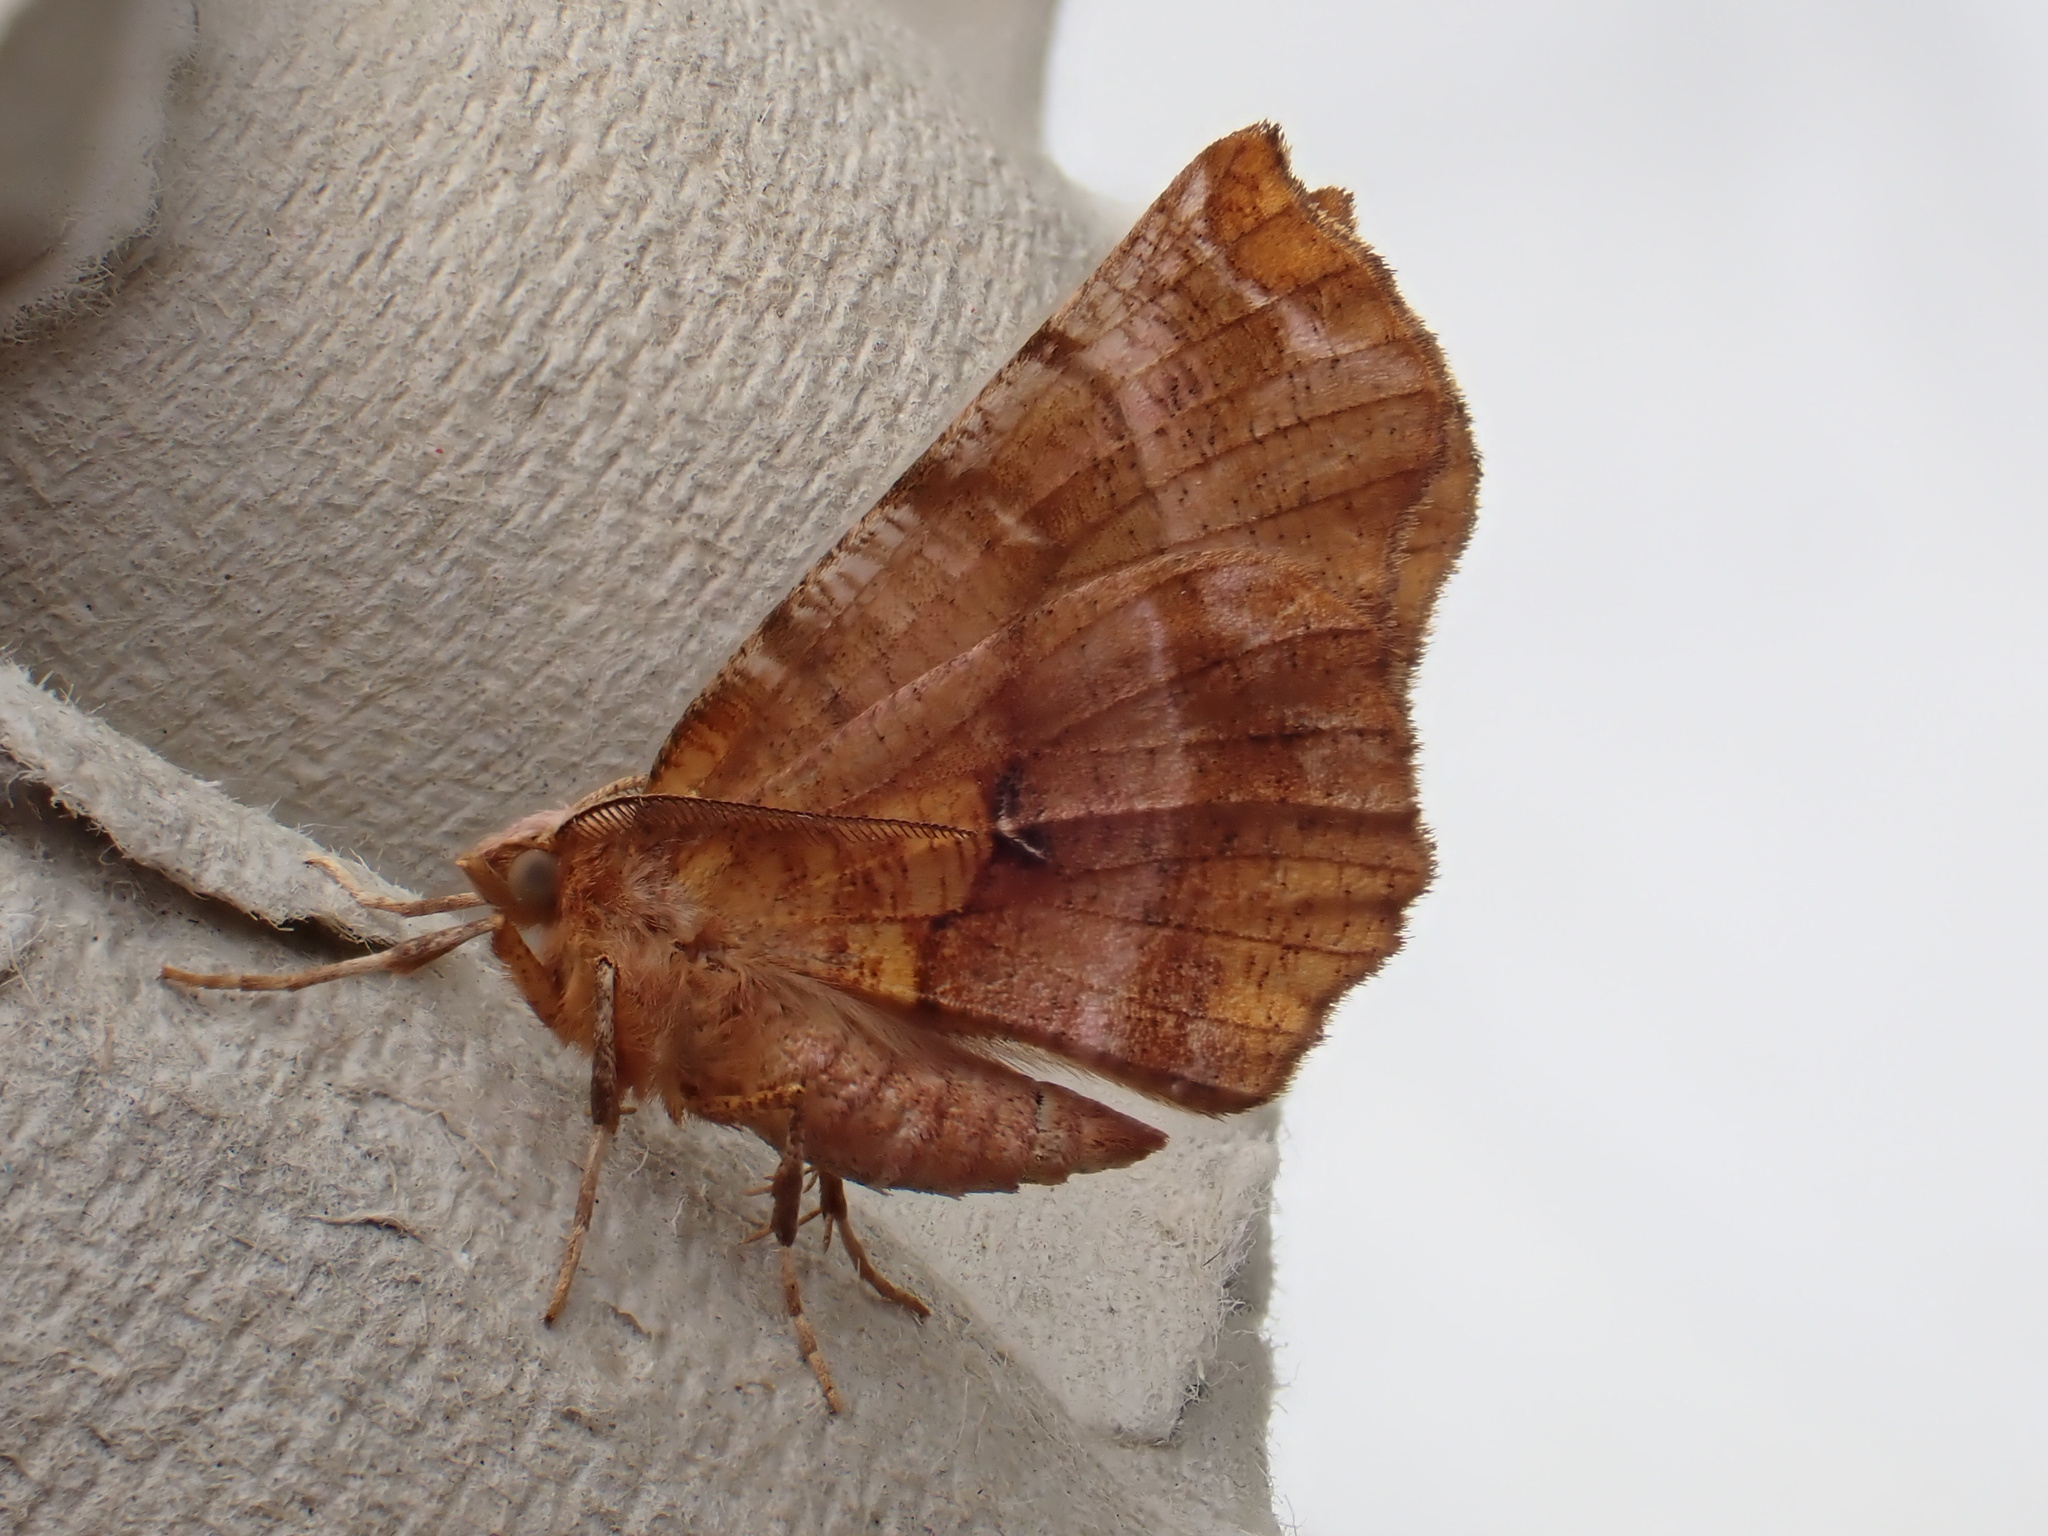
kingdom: Animalia
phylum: Arthropoda
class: Insecta
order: Lepidoptera
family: Geometridae
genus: Selenia
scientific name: Selenia dentaria
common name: Early thorn
